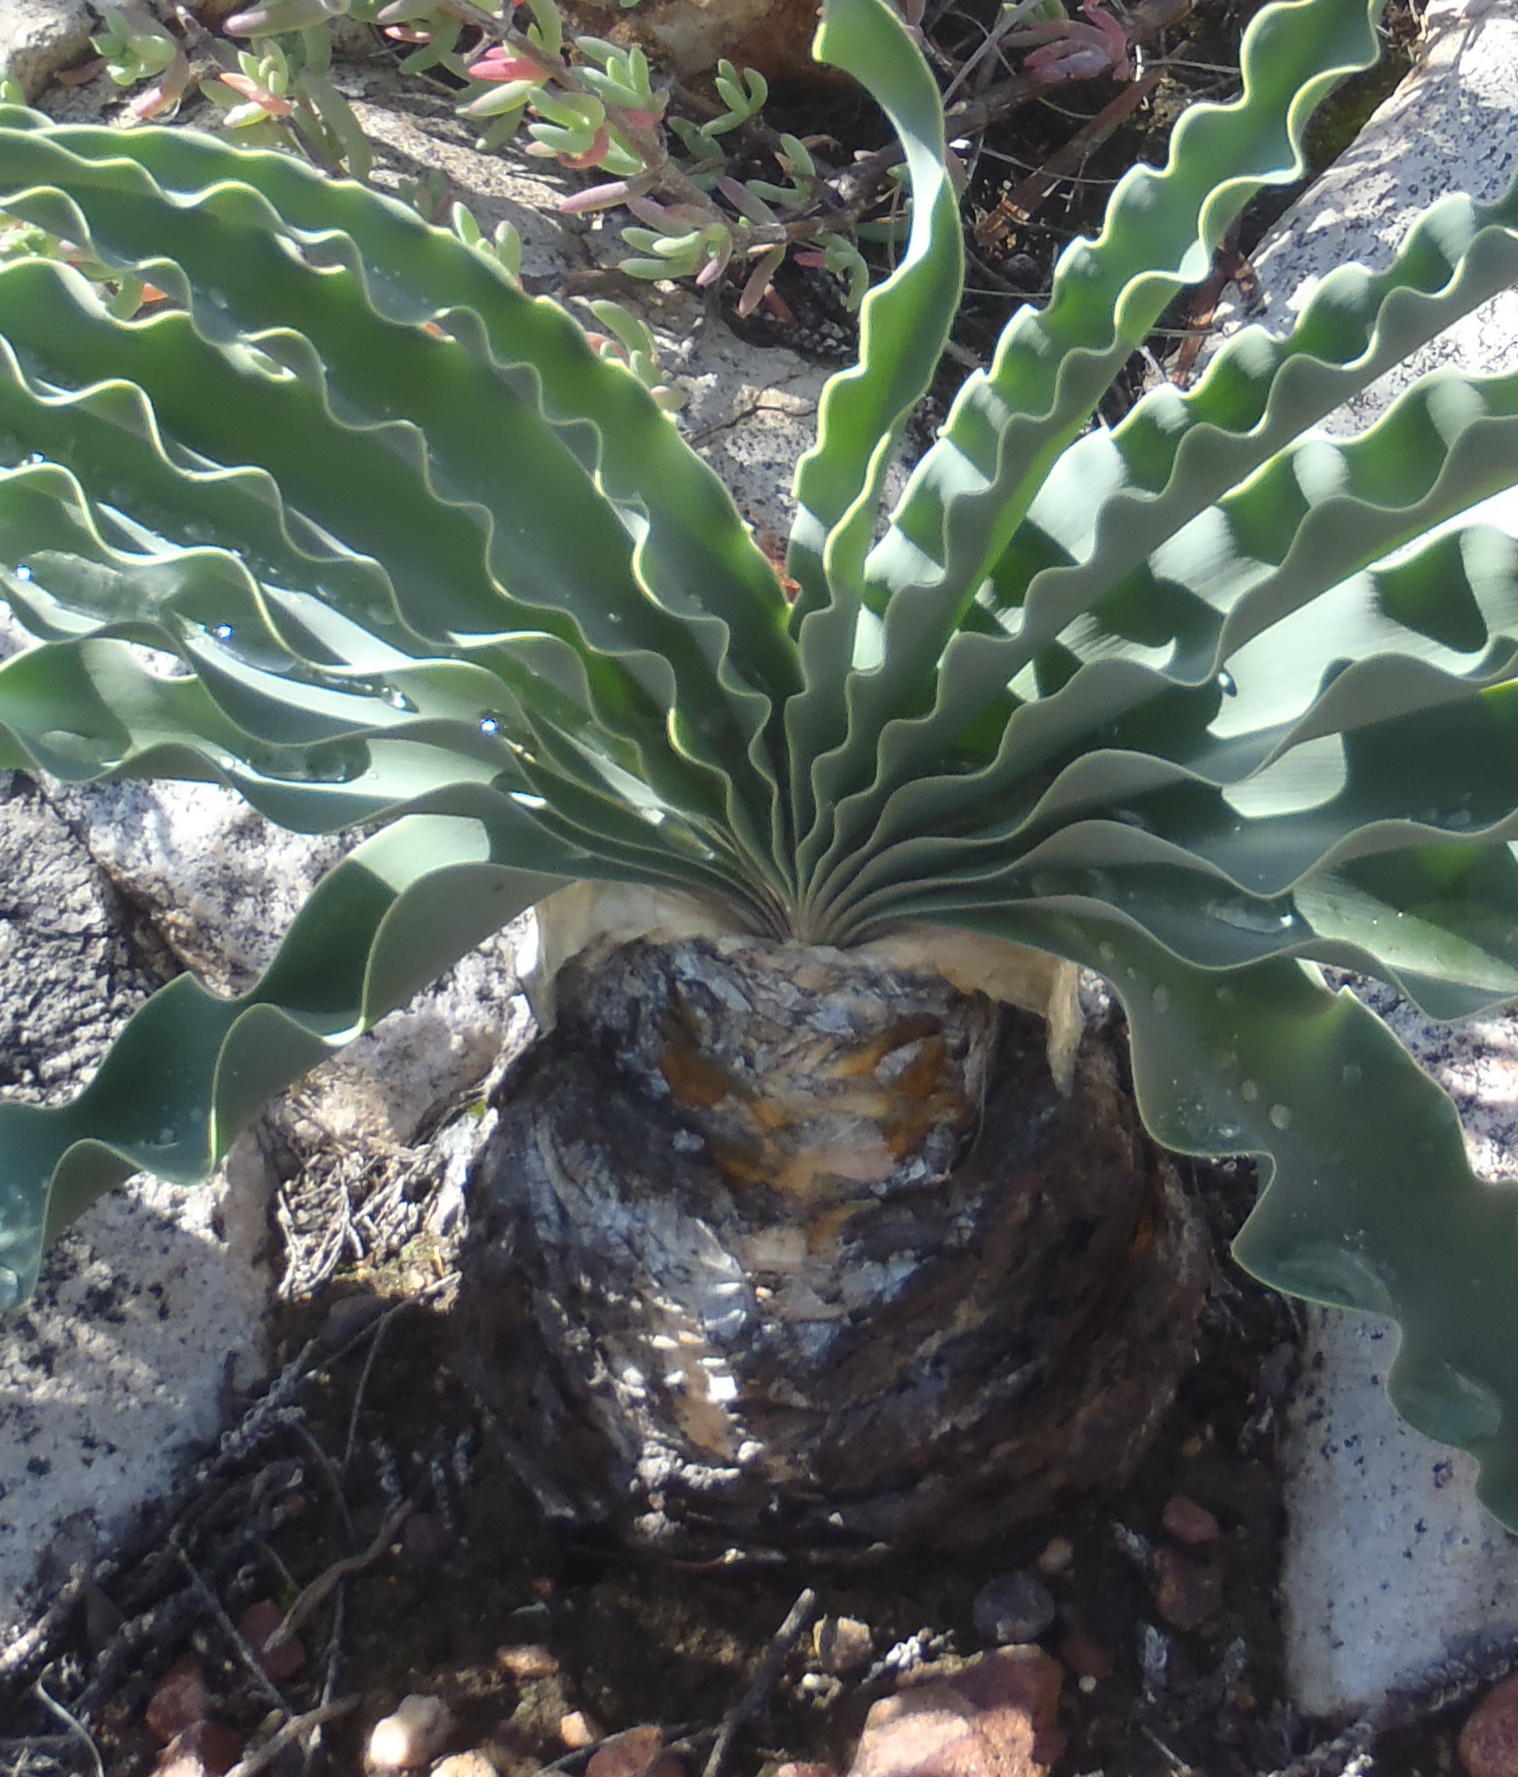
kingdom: Plantae
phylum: Tracheophyta
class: Liliopsida
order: Asparagales
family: Amaryllidaceae
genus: Boophone
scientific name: Boophone disticha
